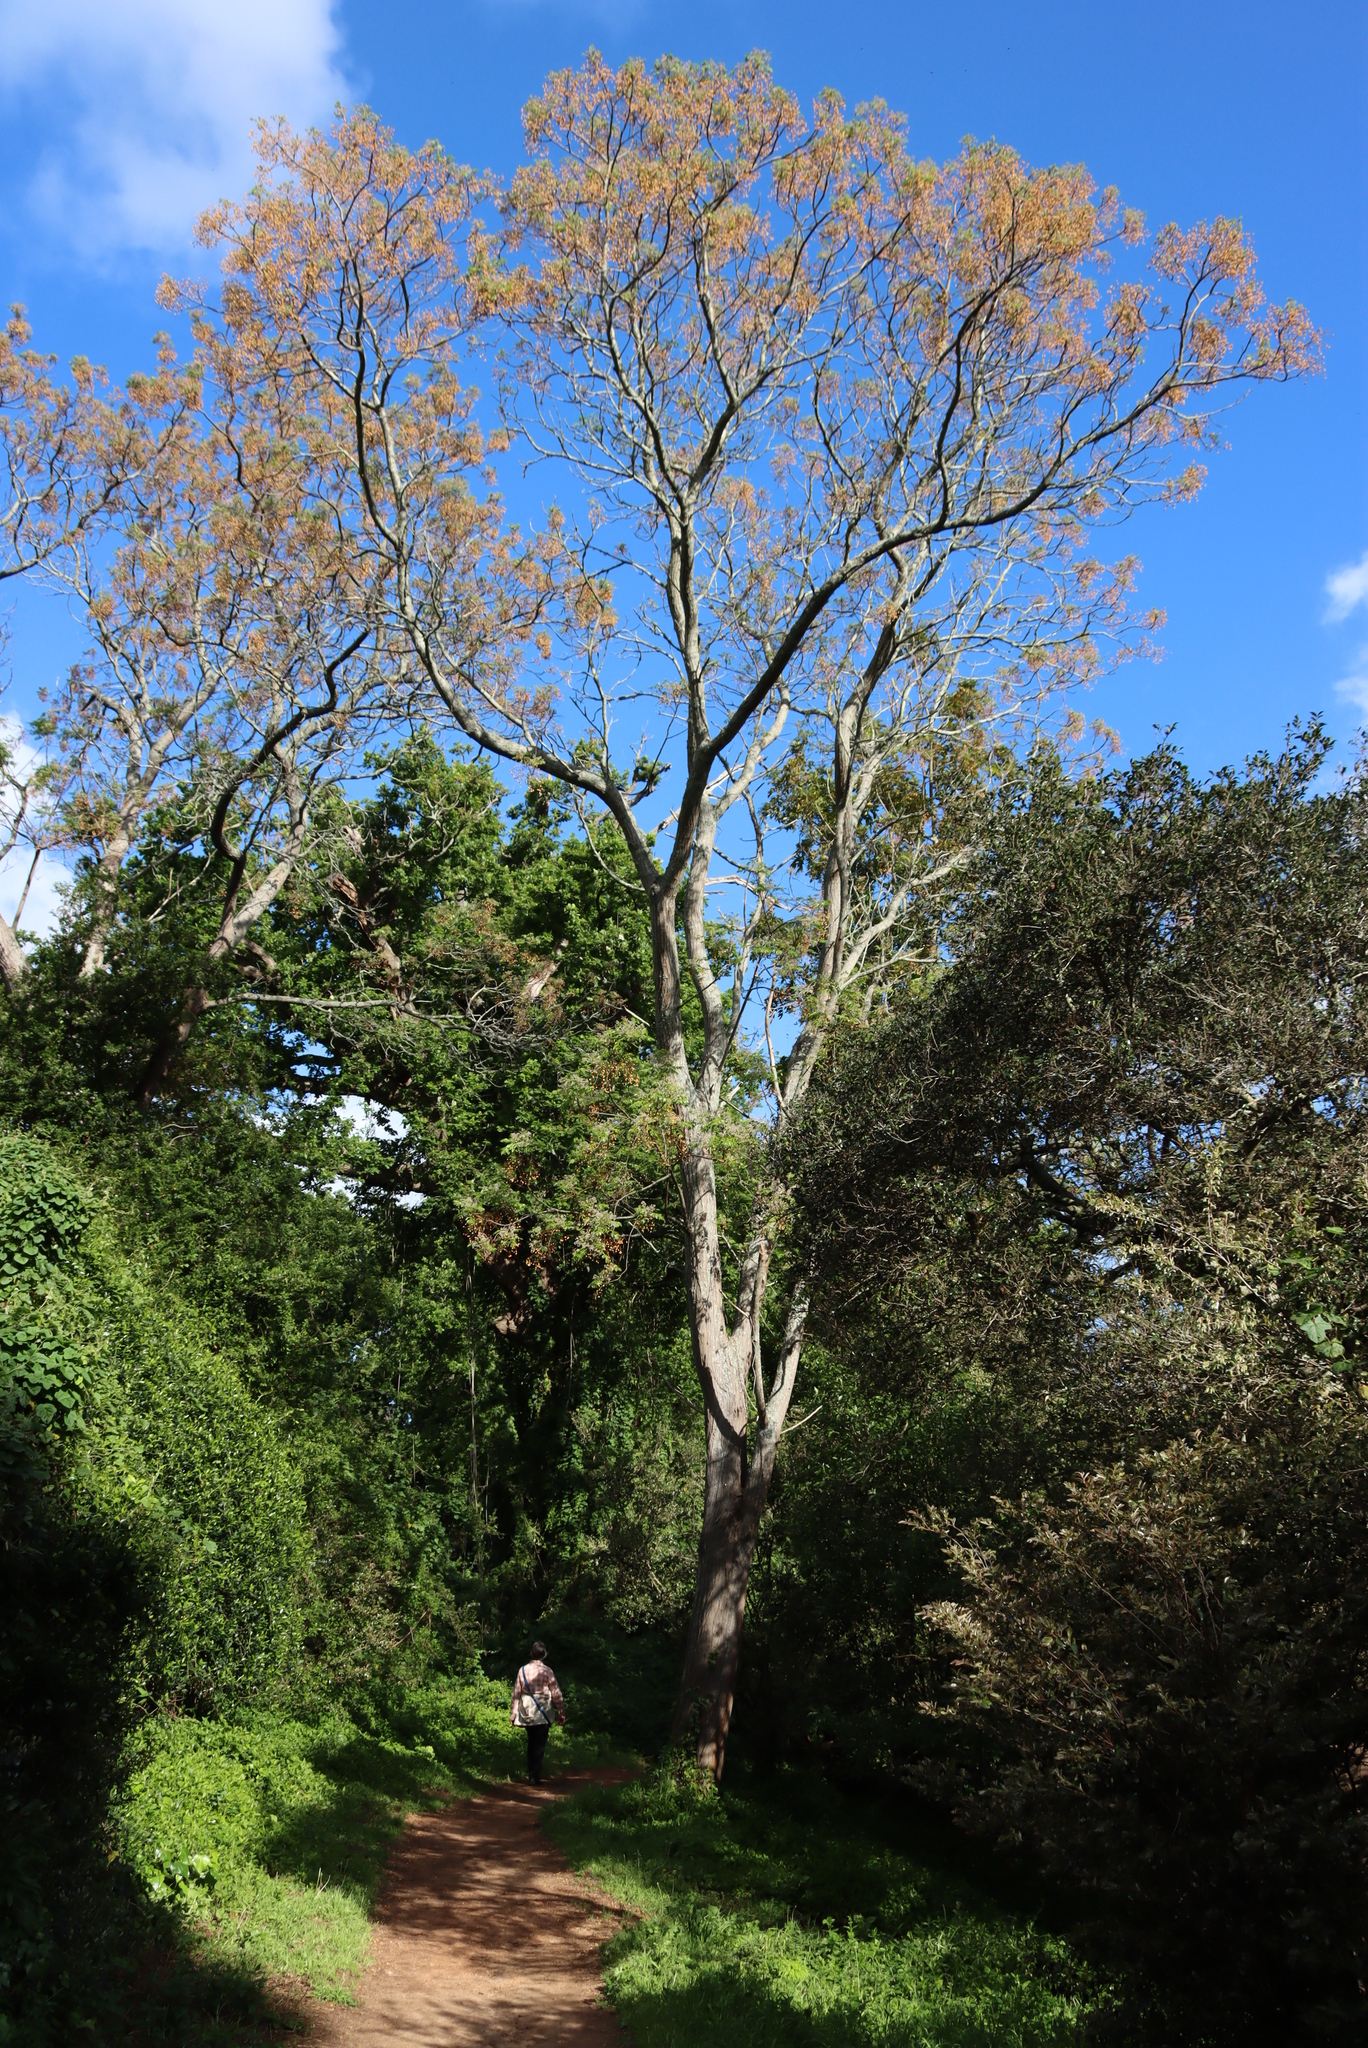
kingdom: Plantae
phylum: Tracheophyta
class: Magnoliopsida
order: Sapindales
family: Meliaceae
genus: Melia
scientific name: Melia azedarach
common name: Chinaberrytree
